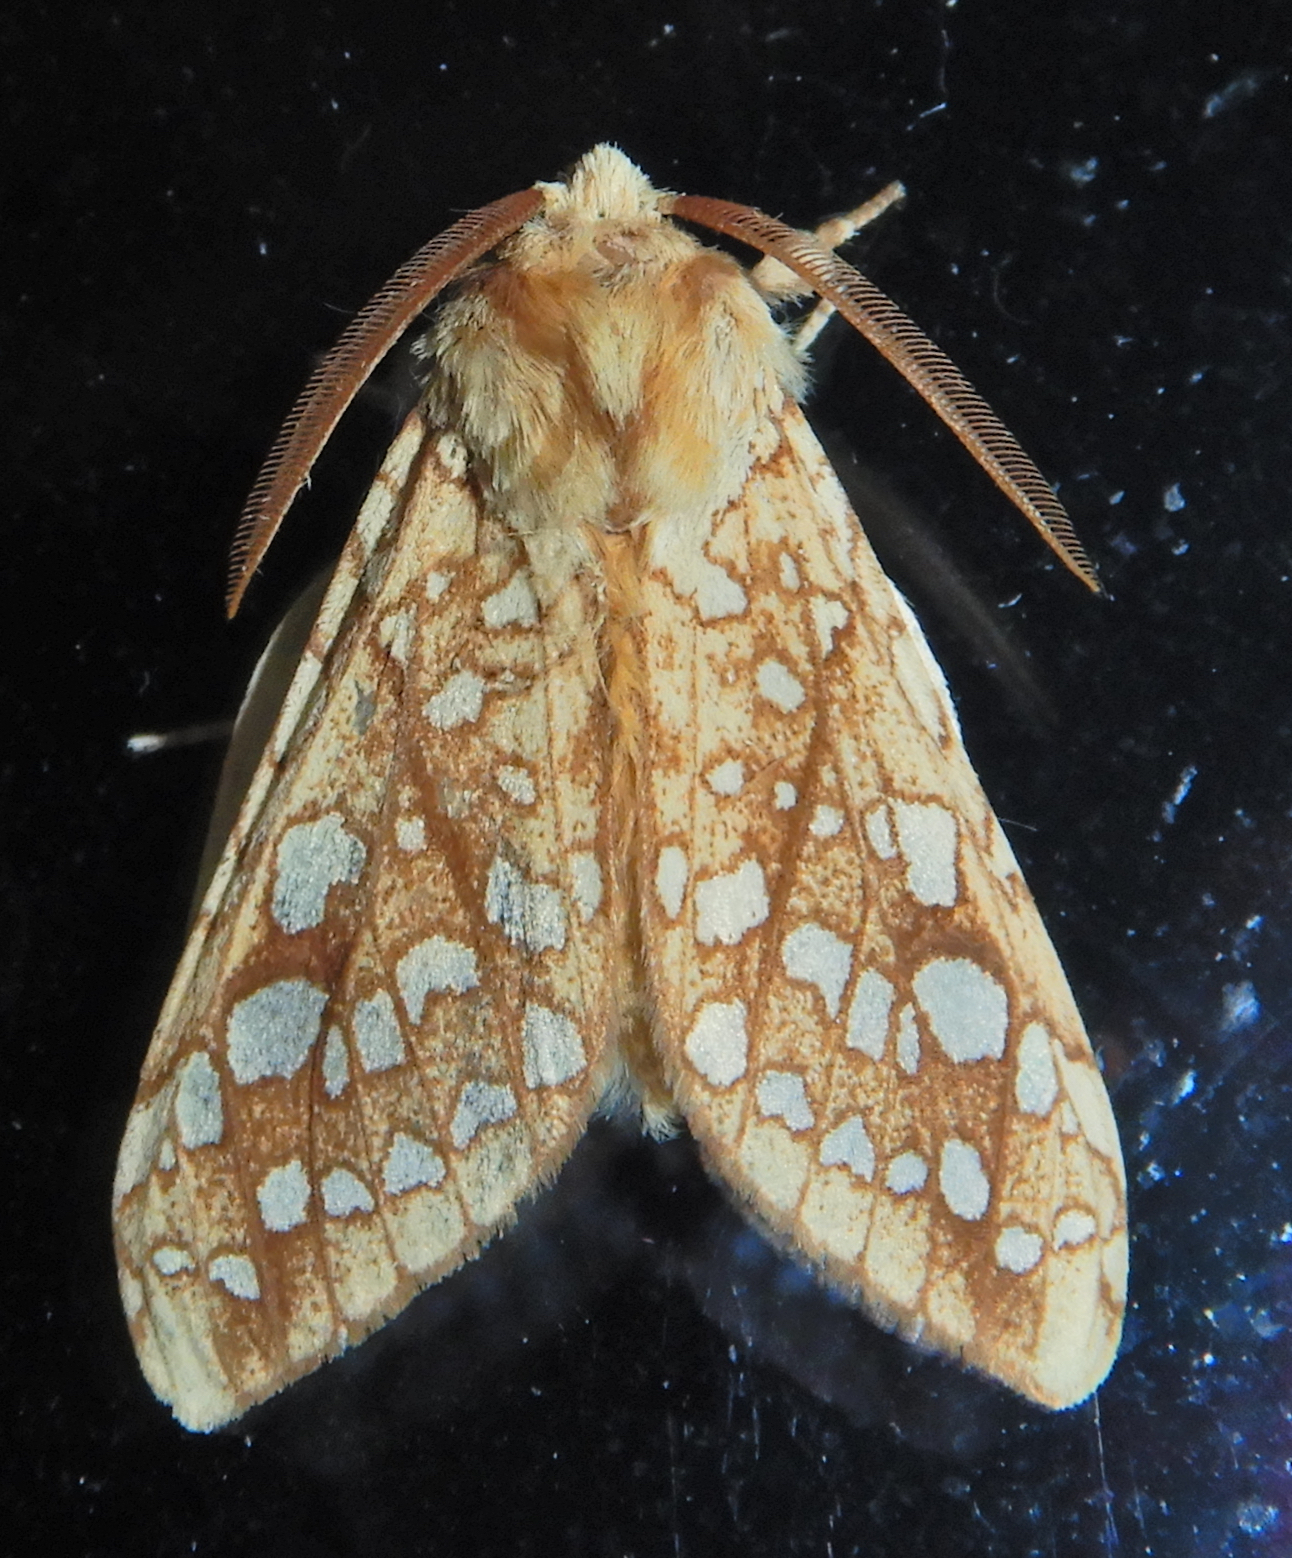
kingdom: Animalia
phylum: Arthropoda
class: Insecta
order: Lepidoptera
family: Erebidae
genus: Lophocampa
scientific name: Lophocampa caryae
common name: Hickory tussock moth
